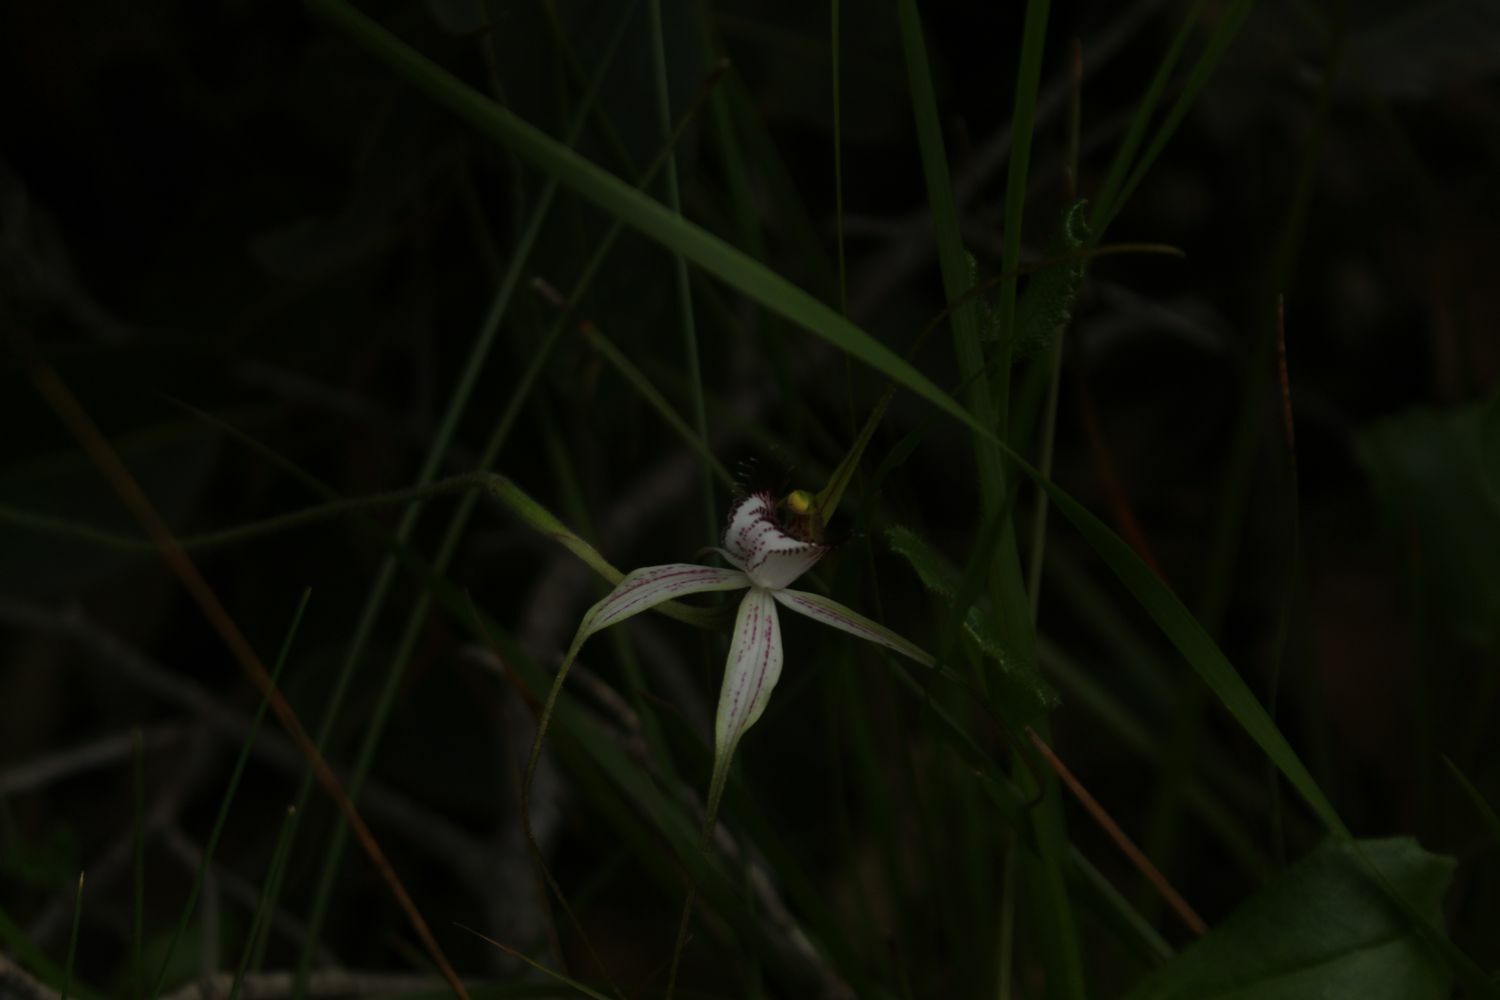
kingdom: Plantae
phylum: Tracheophyta
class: Liliopsida
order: Asparagales
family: Orchidaceae
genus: Caladenia
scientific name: Caladenia longicauda
